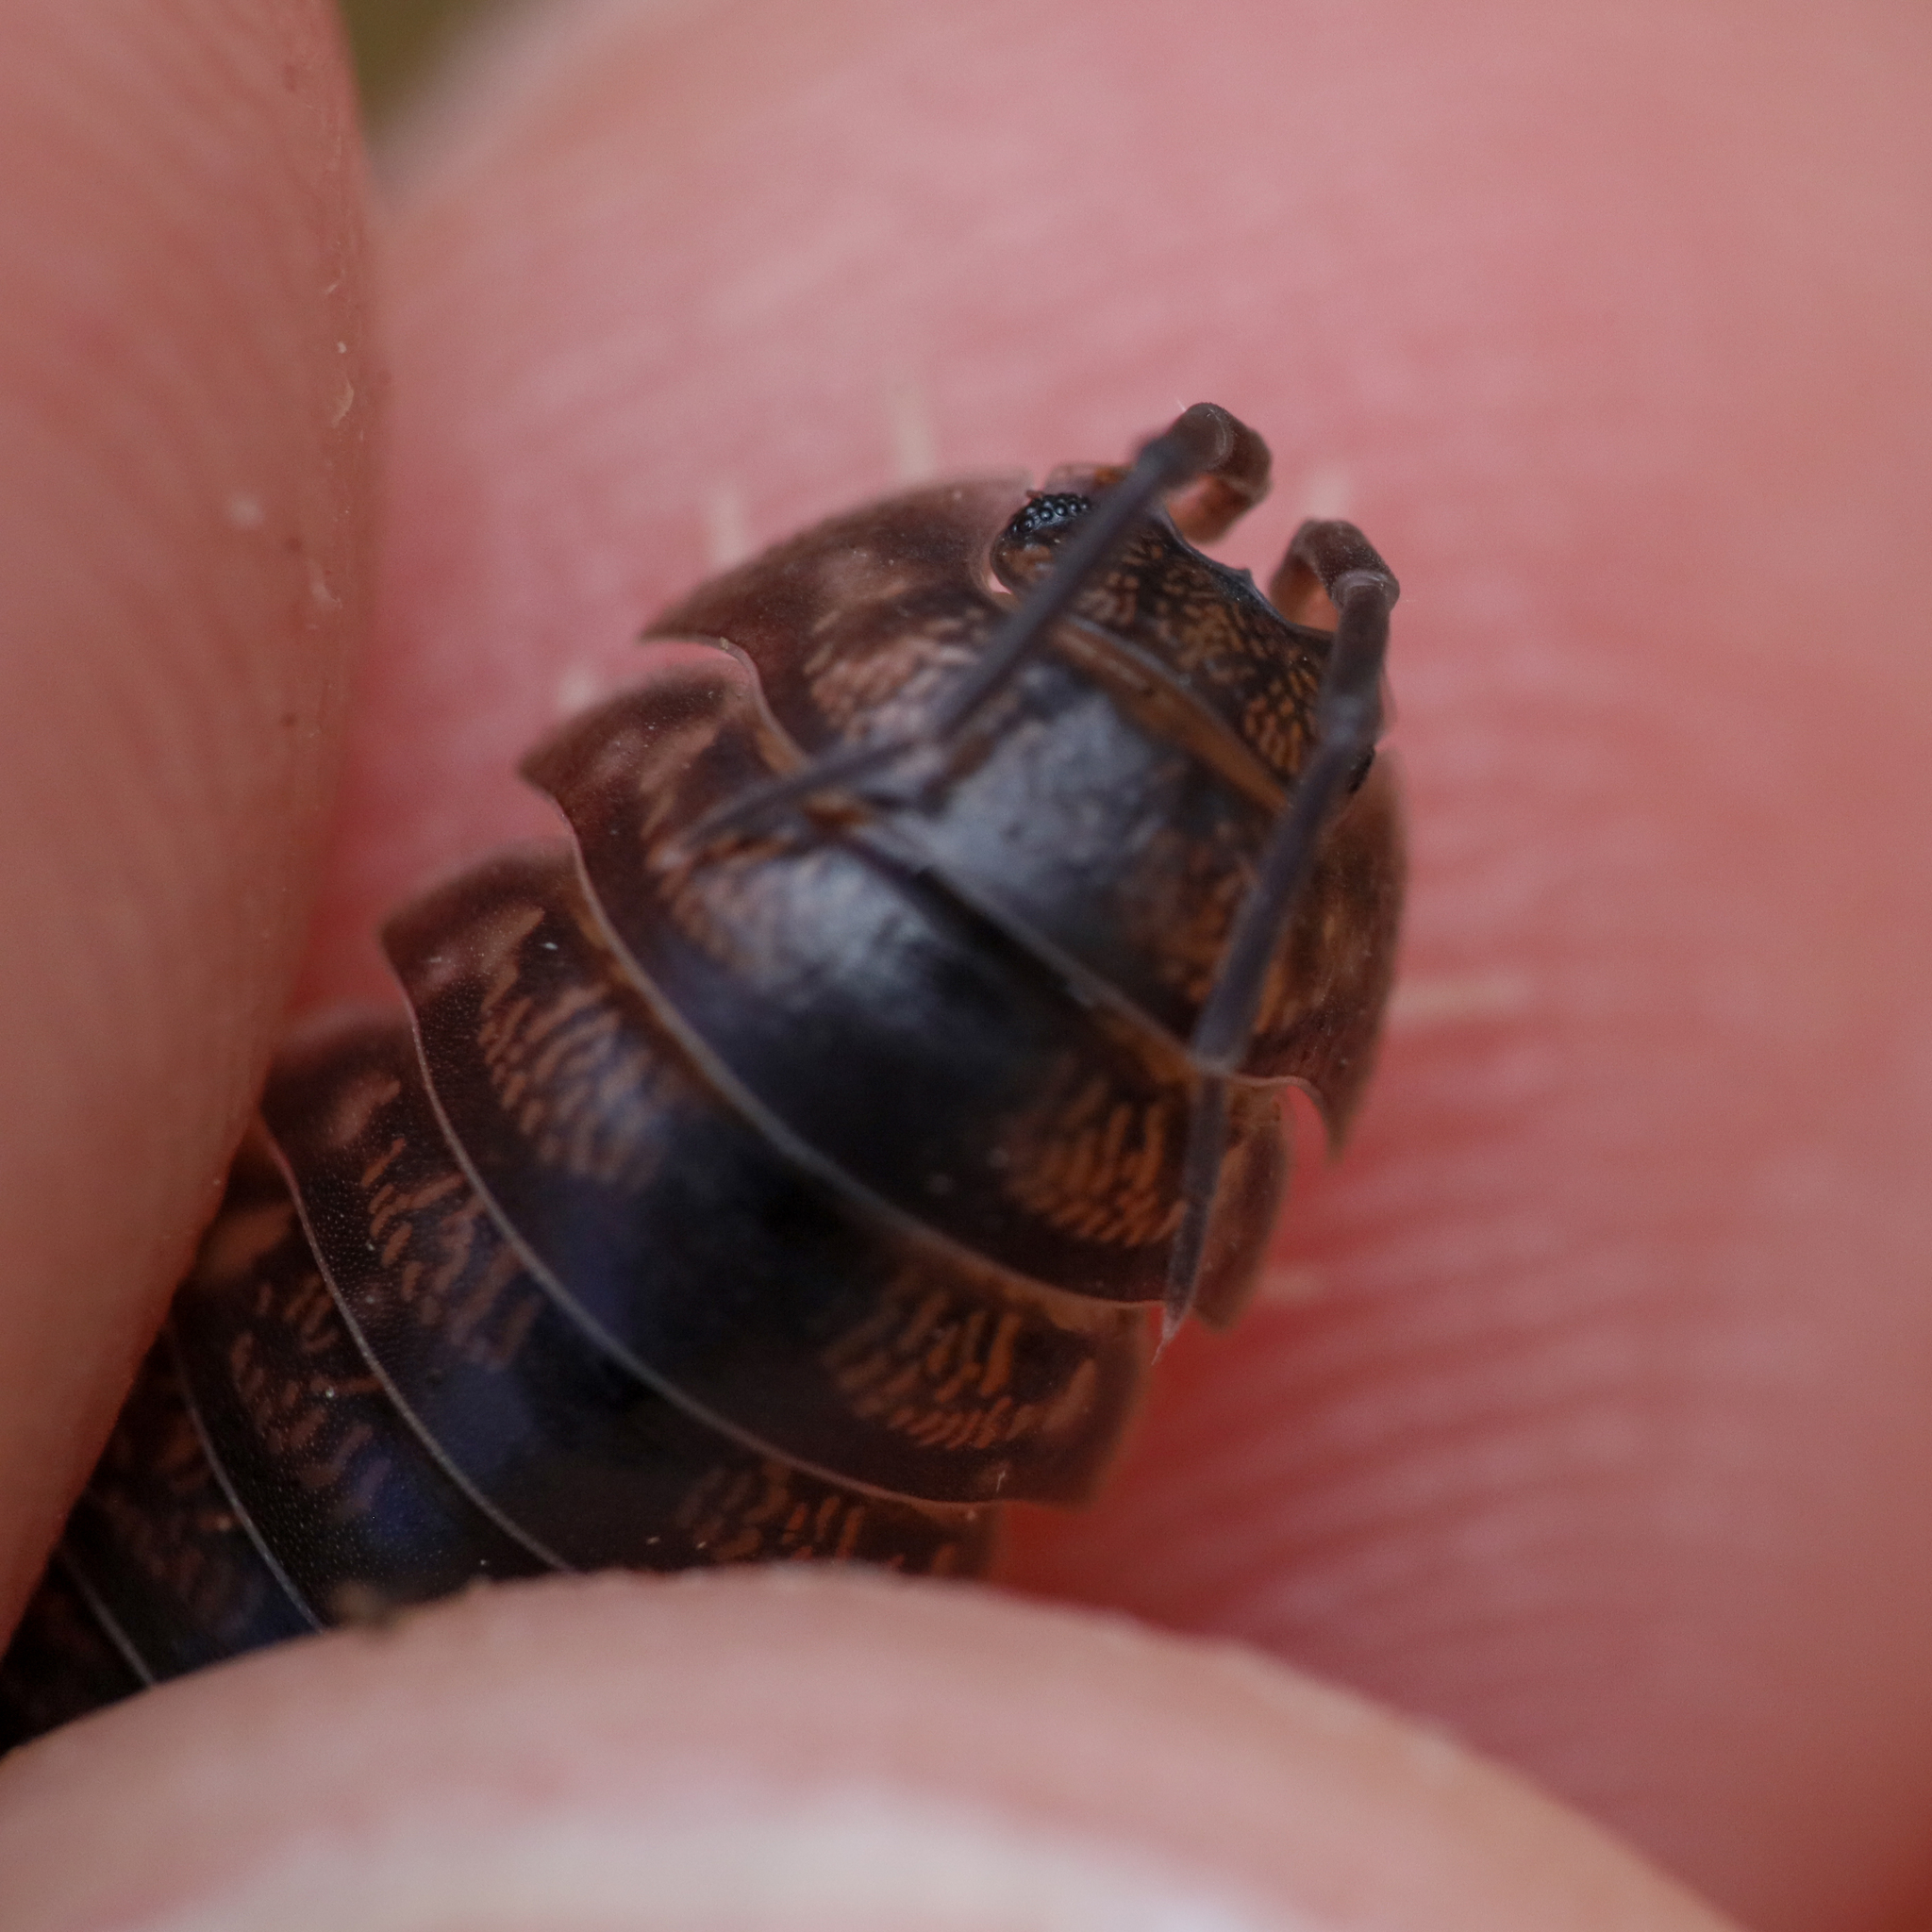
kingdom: Animalia
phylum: Arthropoda
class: Malacostraca
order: Isopoda
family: Cylisticidae
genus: Cylisticus
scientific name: Cylisticus convexus
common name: Curly woodlouse
